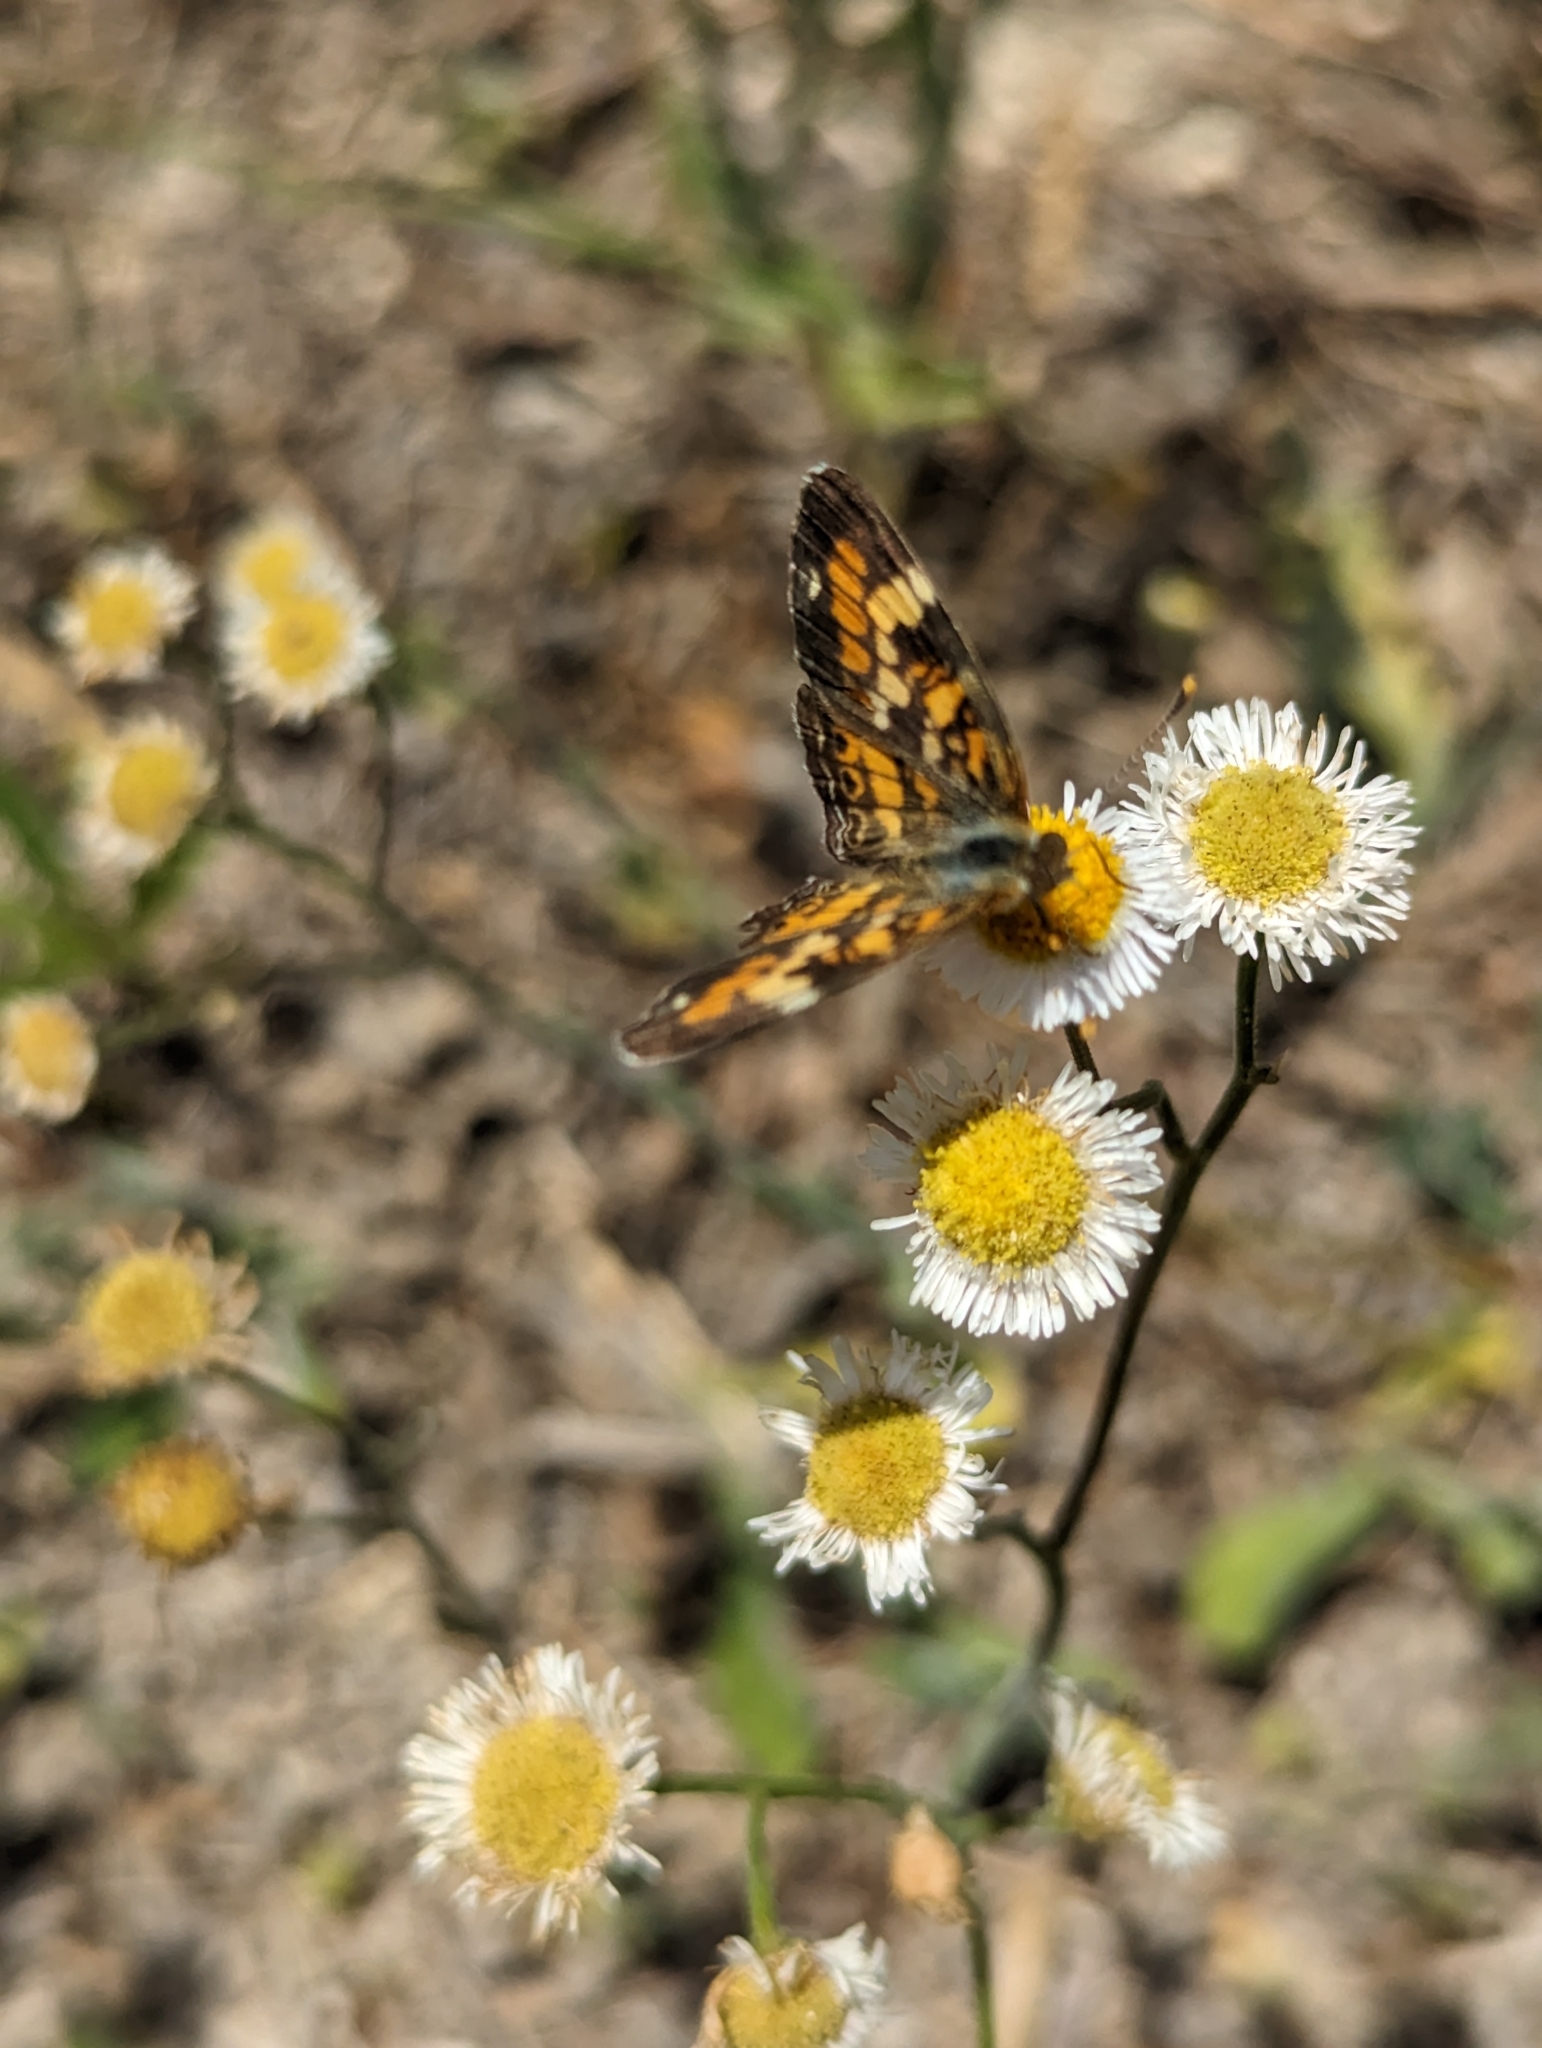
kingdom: Animalia
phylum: Arthropoda
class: Insecta
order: Lepidoptera
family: Nymphalidae
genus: Phyciodes
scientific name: Phyciodes phaon
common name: Phaon crescent
